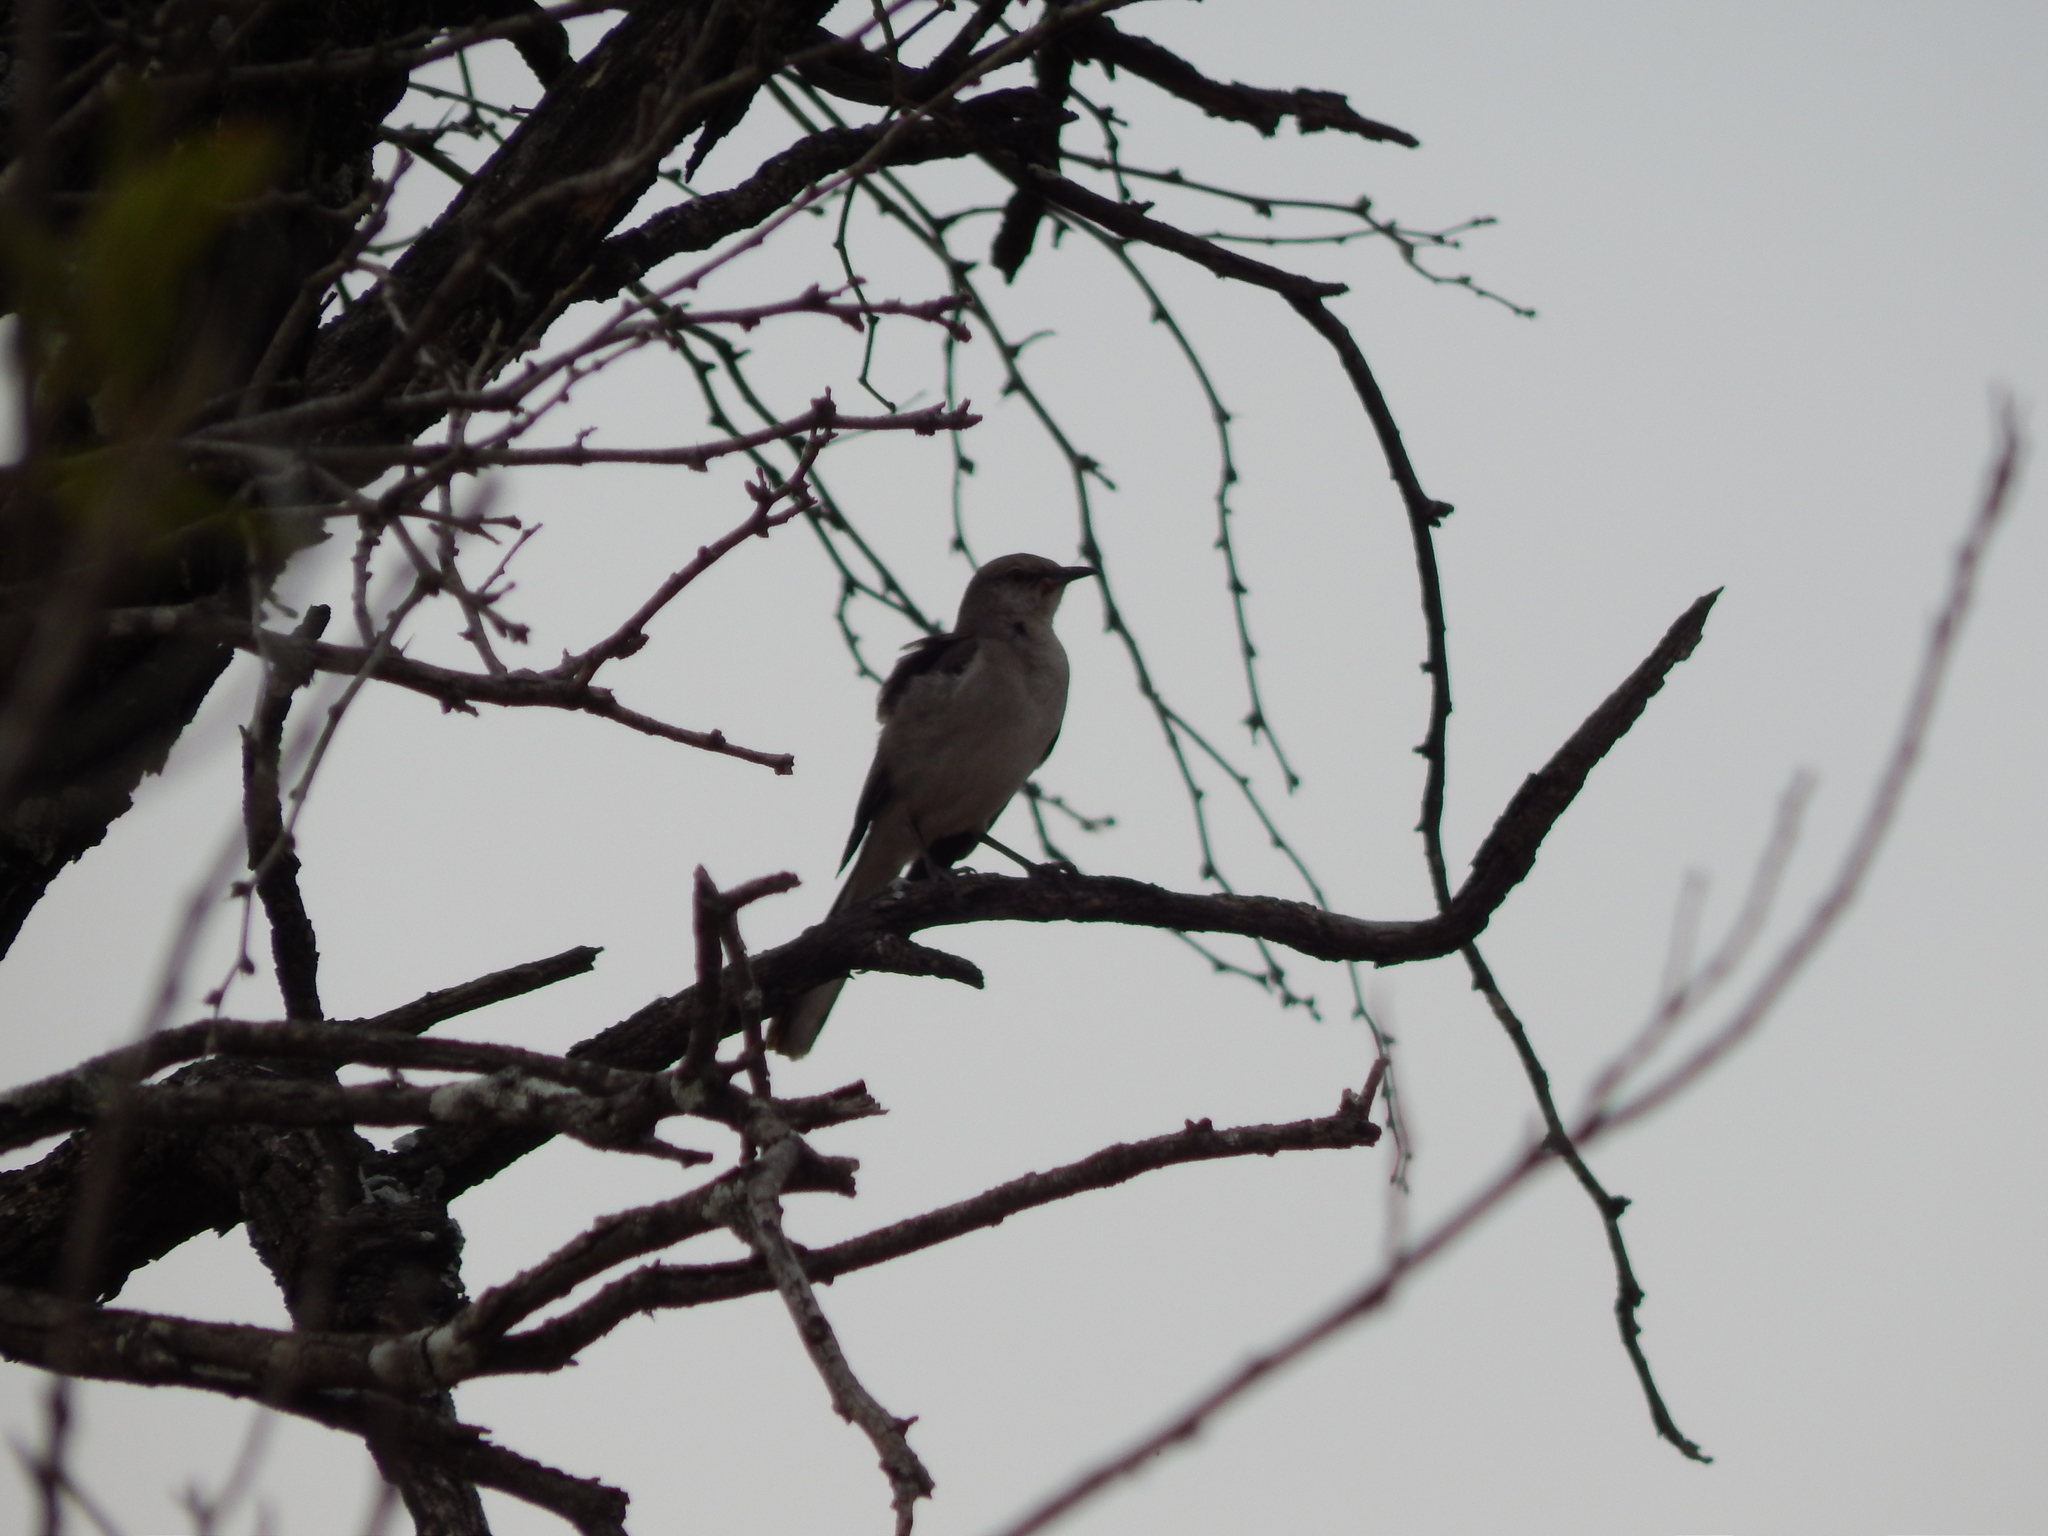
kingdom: Animalia
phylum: Chordata
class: Aves
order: Passeriformes
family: Mimidae
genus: Mimus
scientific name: Mimus polyglottos
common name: Northern mockingbird
